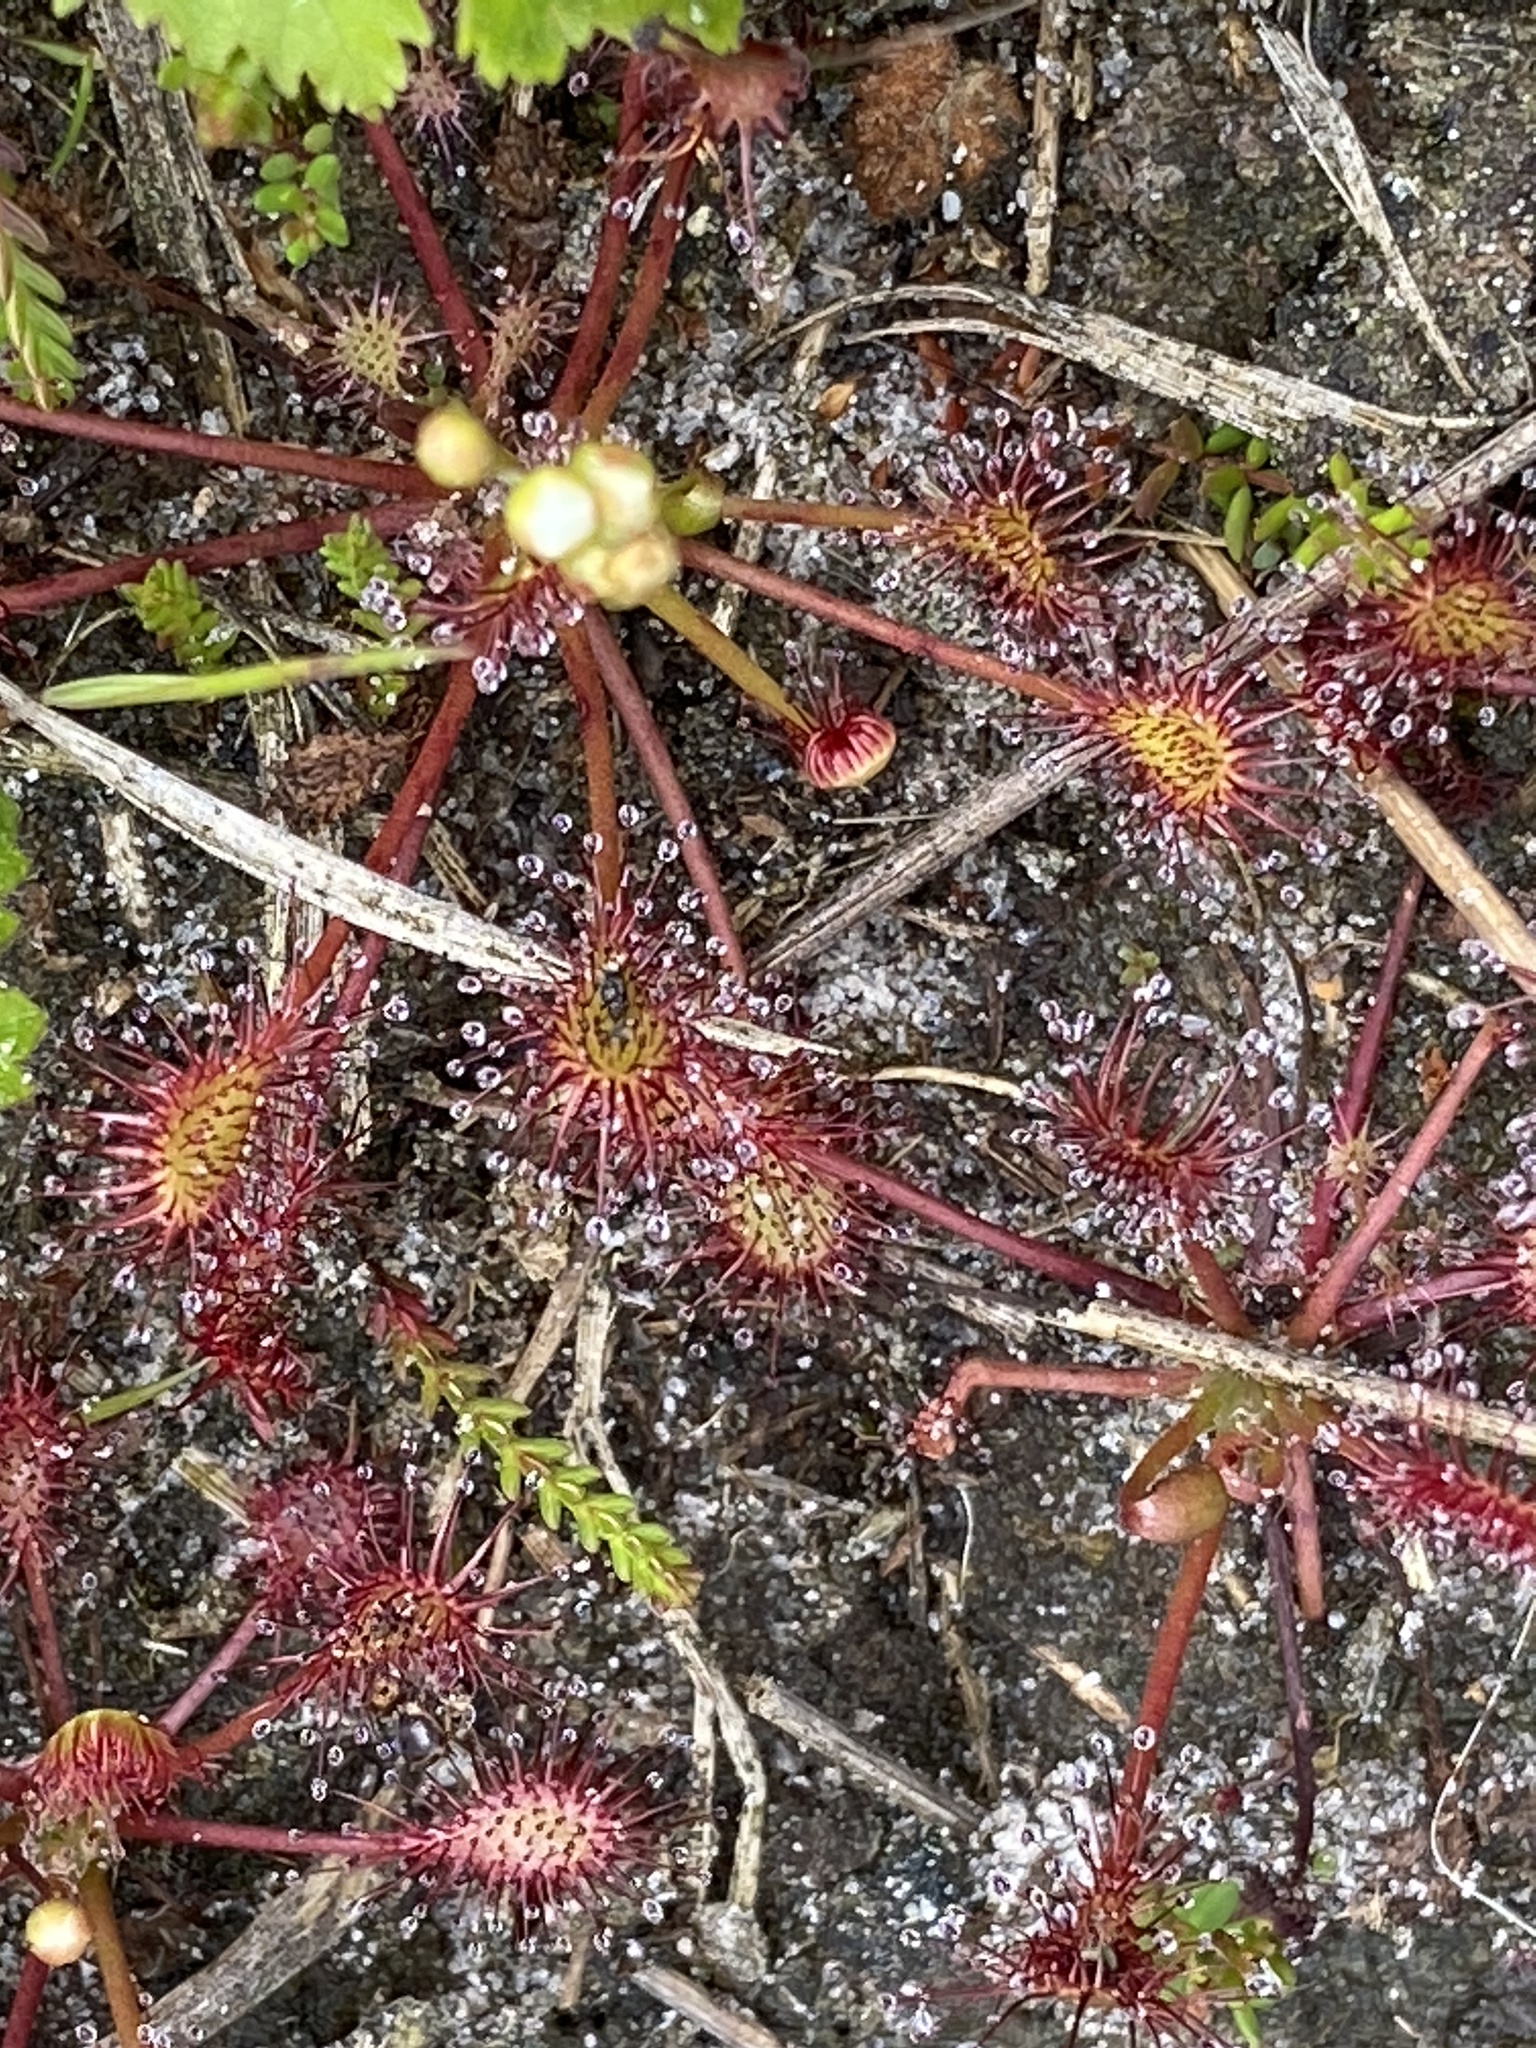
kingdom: Plantae
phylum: Tracheophyta
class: Magnoliopsida
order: Caryophyllales
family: Droseraceae
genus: Drosera
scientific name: Drosera intermedia
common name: Oblong-leaved sundew
